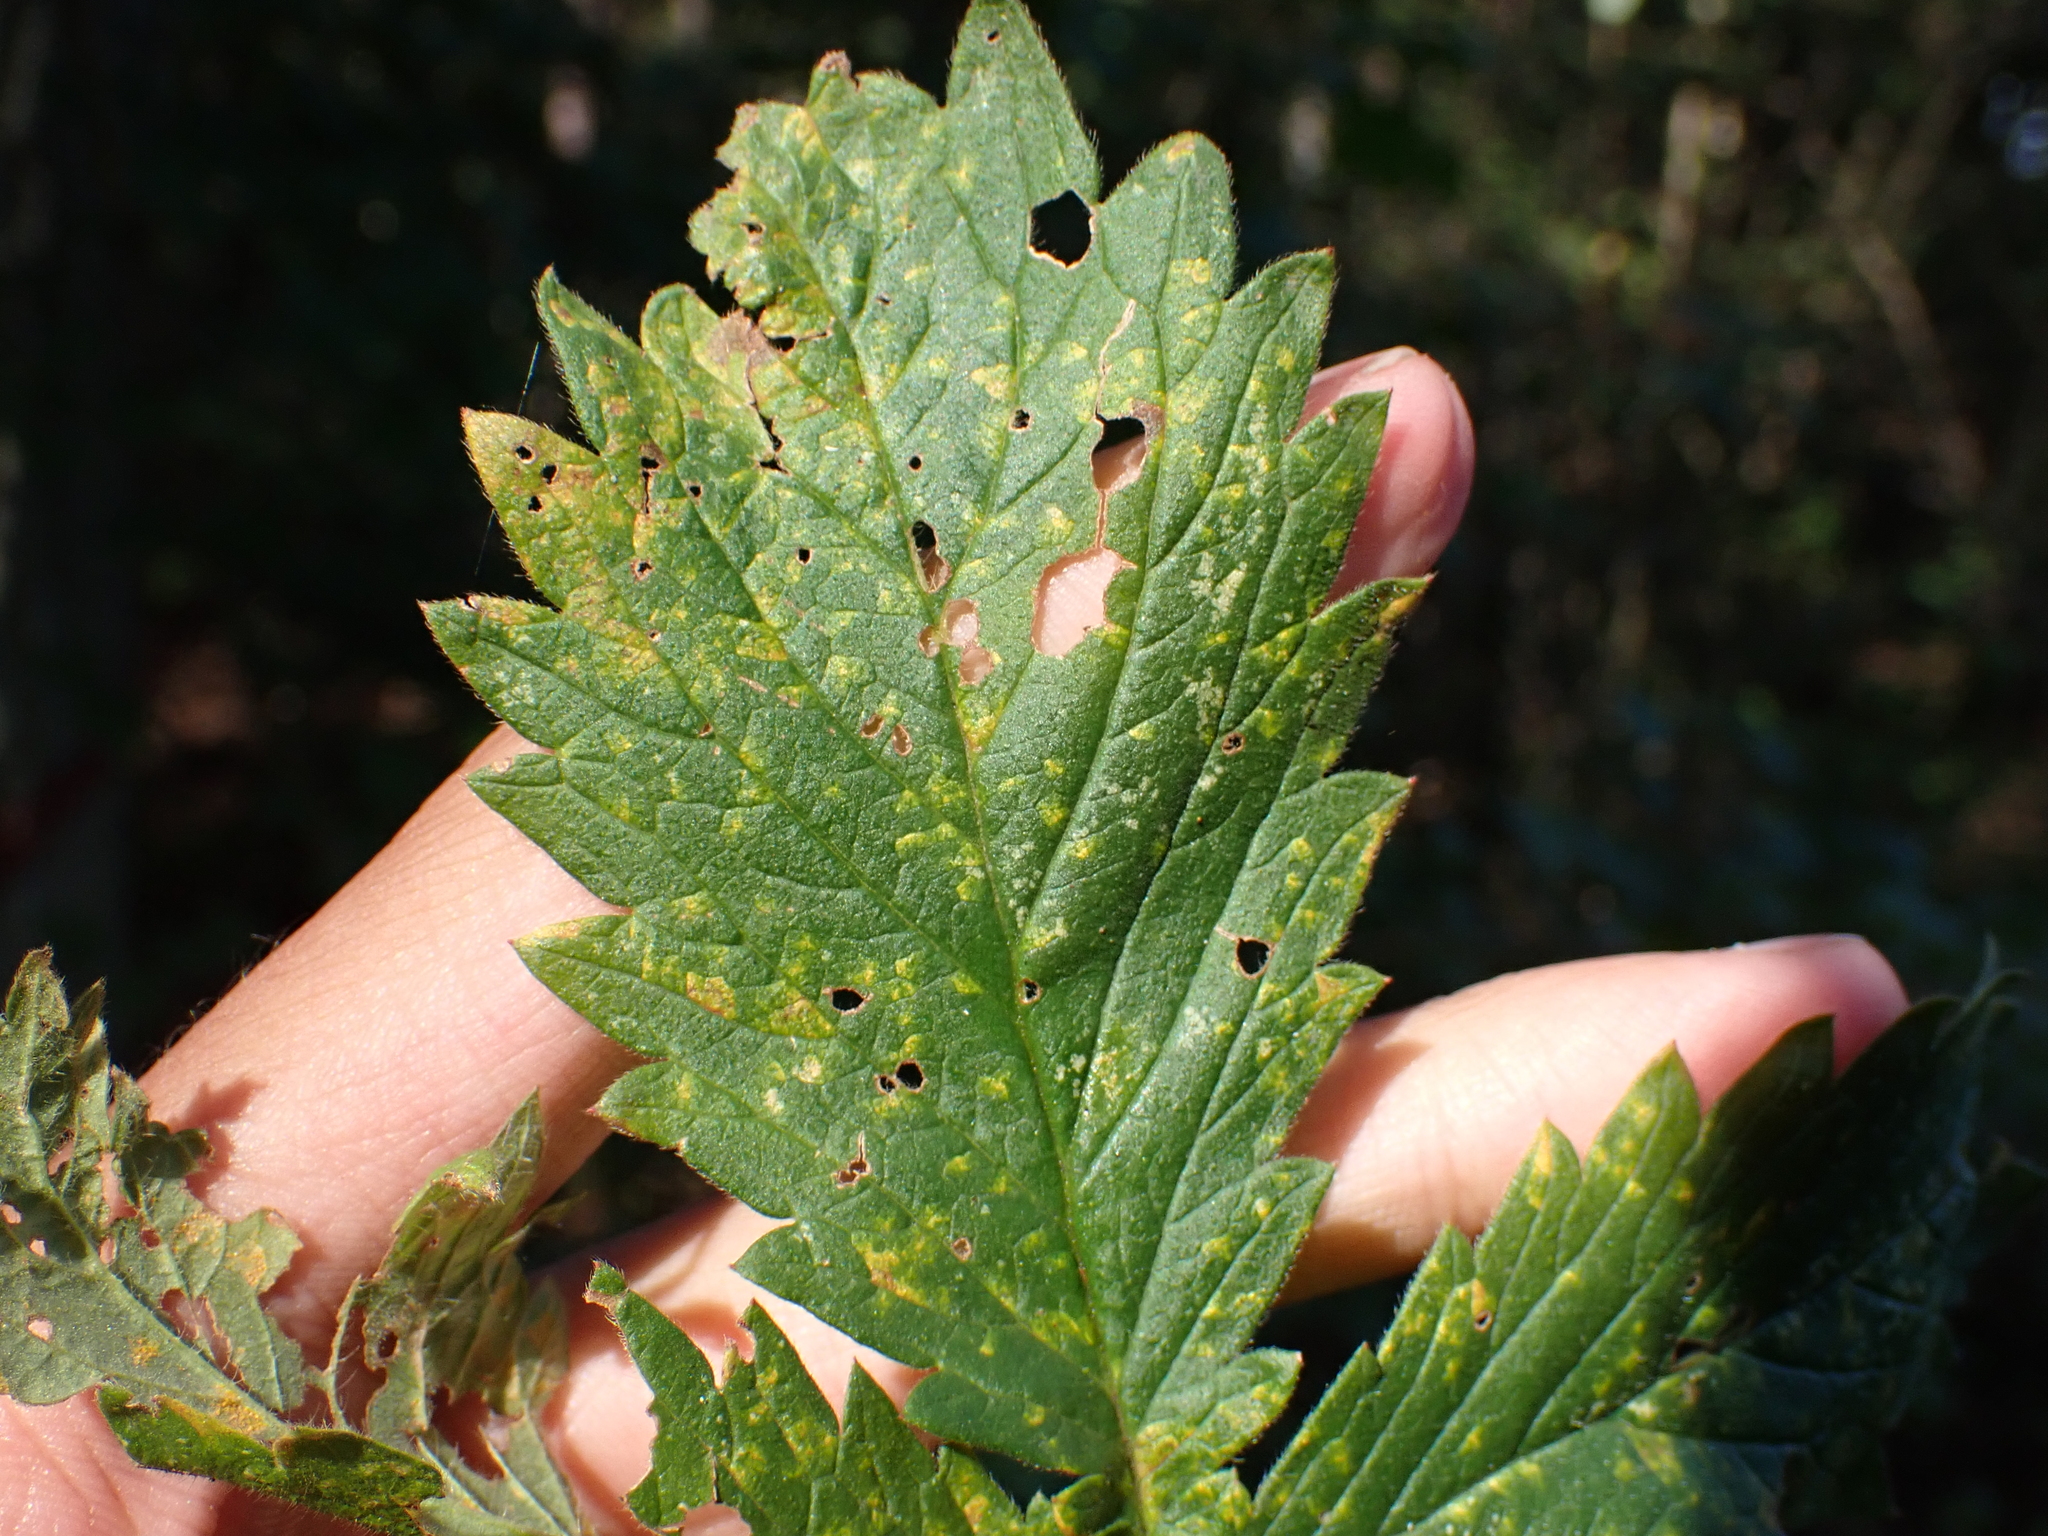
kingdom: Fungi
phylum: Basidiomycota
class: Pucciniomycetes
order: Pucciniales
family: Cronartiaceae
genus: Quasipucciniastrum
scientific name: Quasipucciniastrum ochraceum
